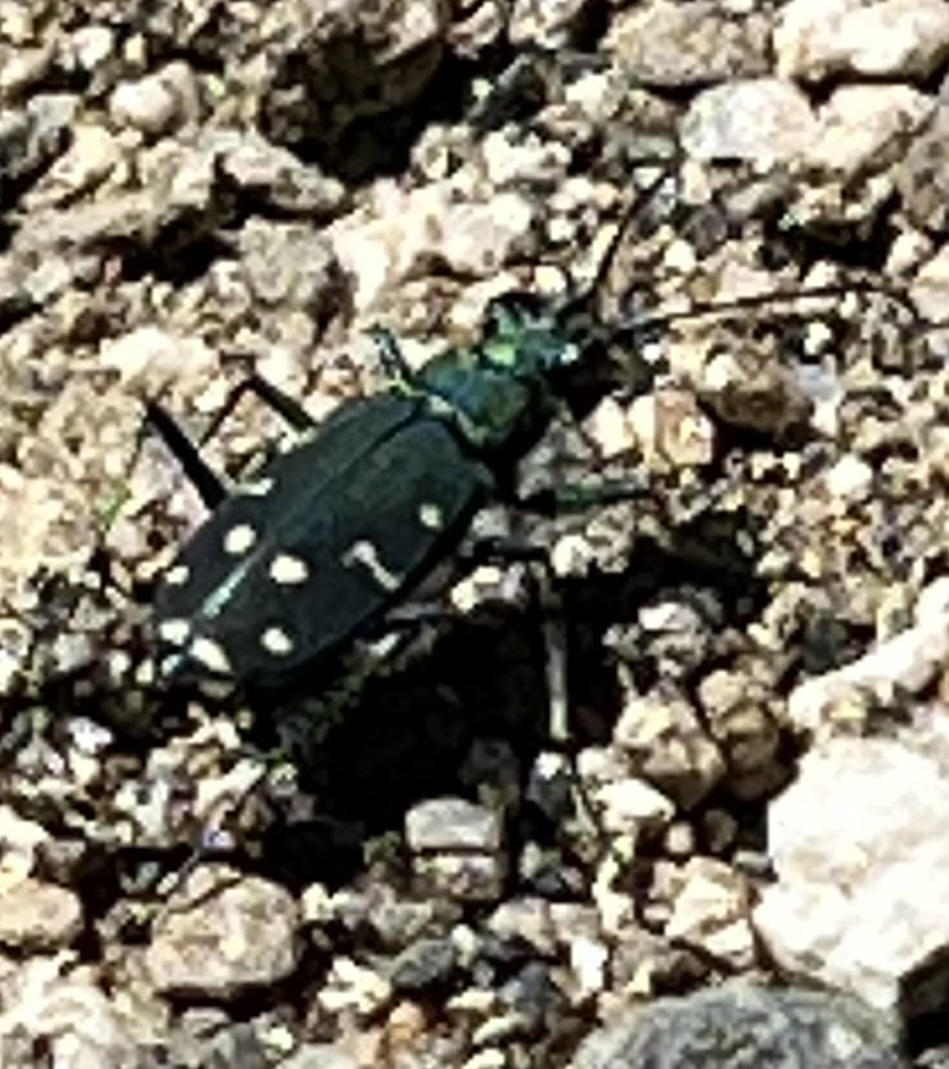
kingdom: Animalia
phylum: Arthropoda
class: Insecta
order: Coleoptera
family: Carabidae
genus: Cicindela
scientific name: Cicindela oregona
